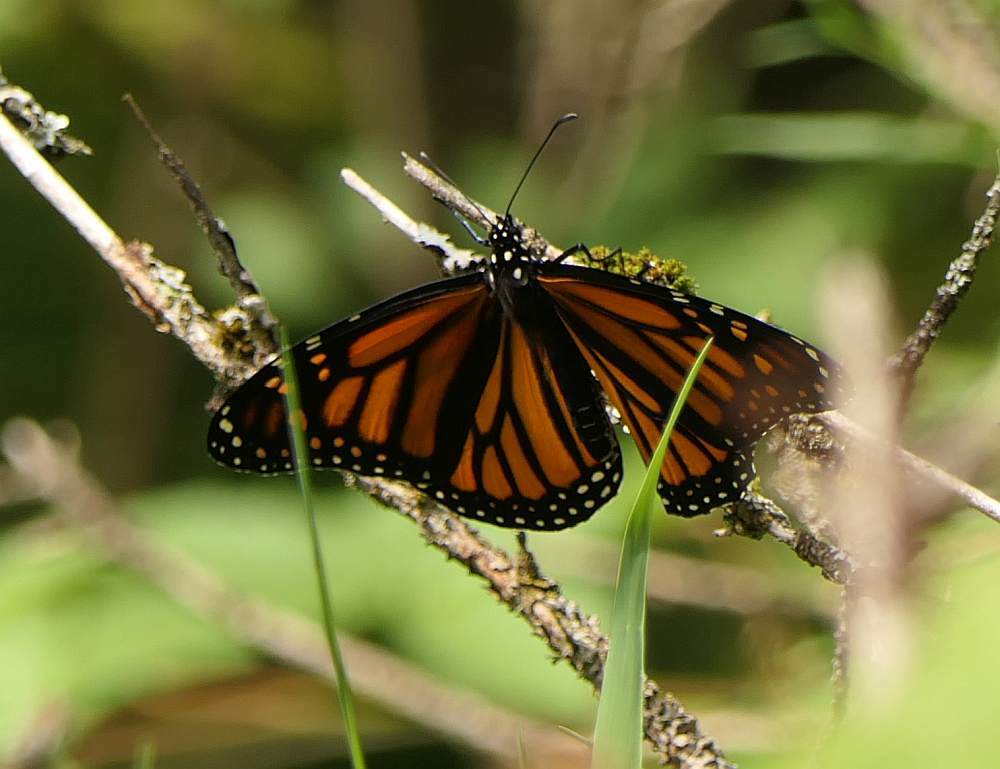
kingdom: Animalia
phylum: Arthropoda
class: Insecta
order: Lepidoptera
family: Nymphalidae
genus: Danaus
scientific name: Danaus plexippus
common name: Monarch
